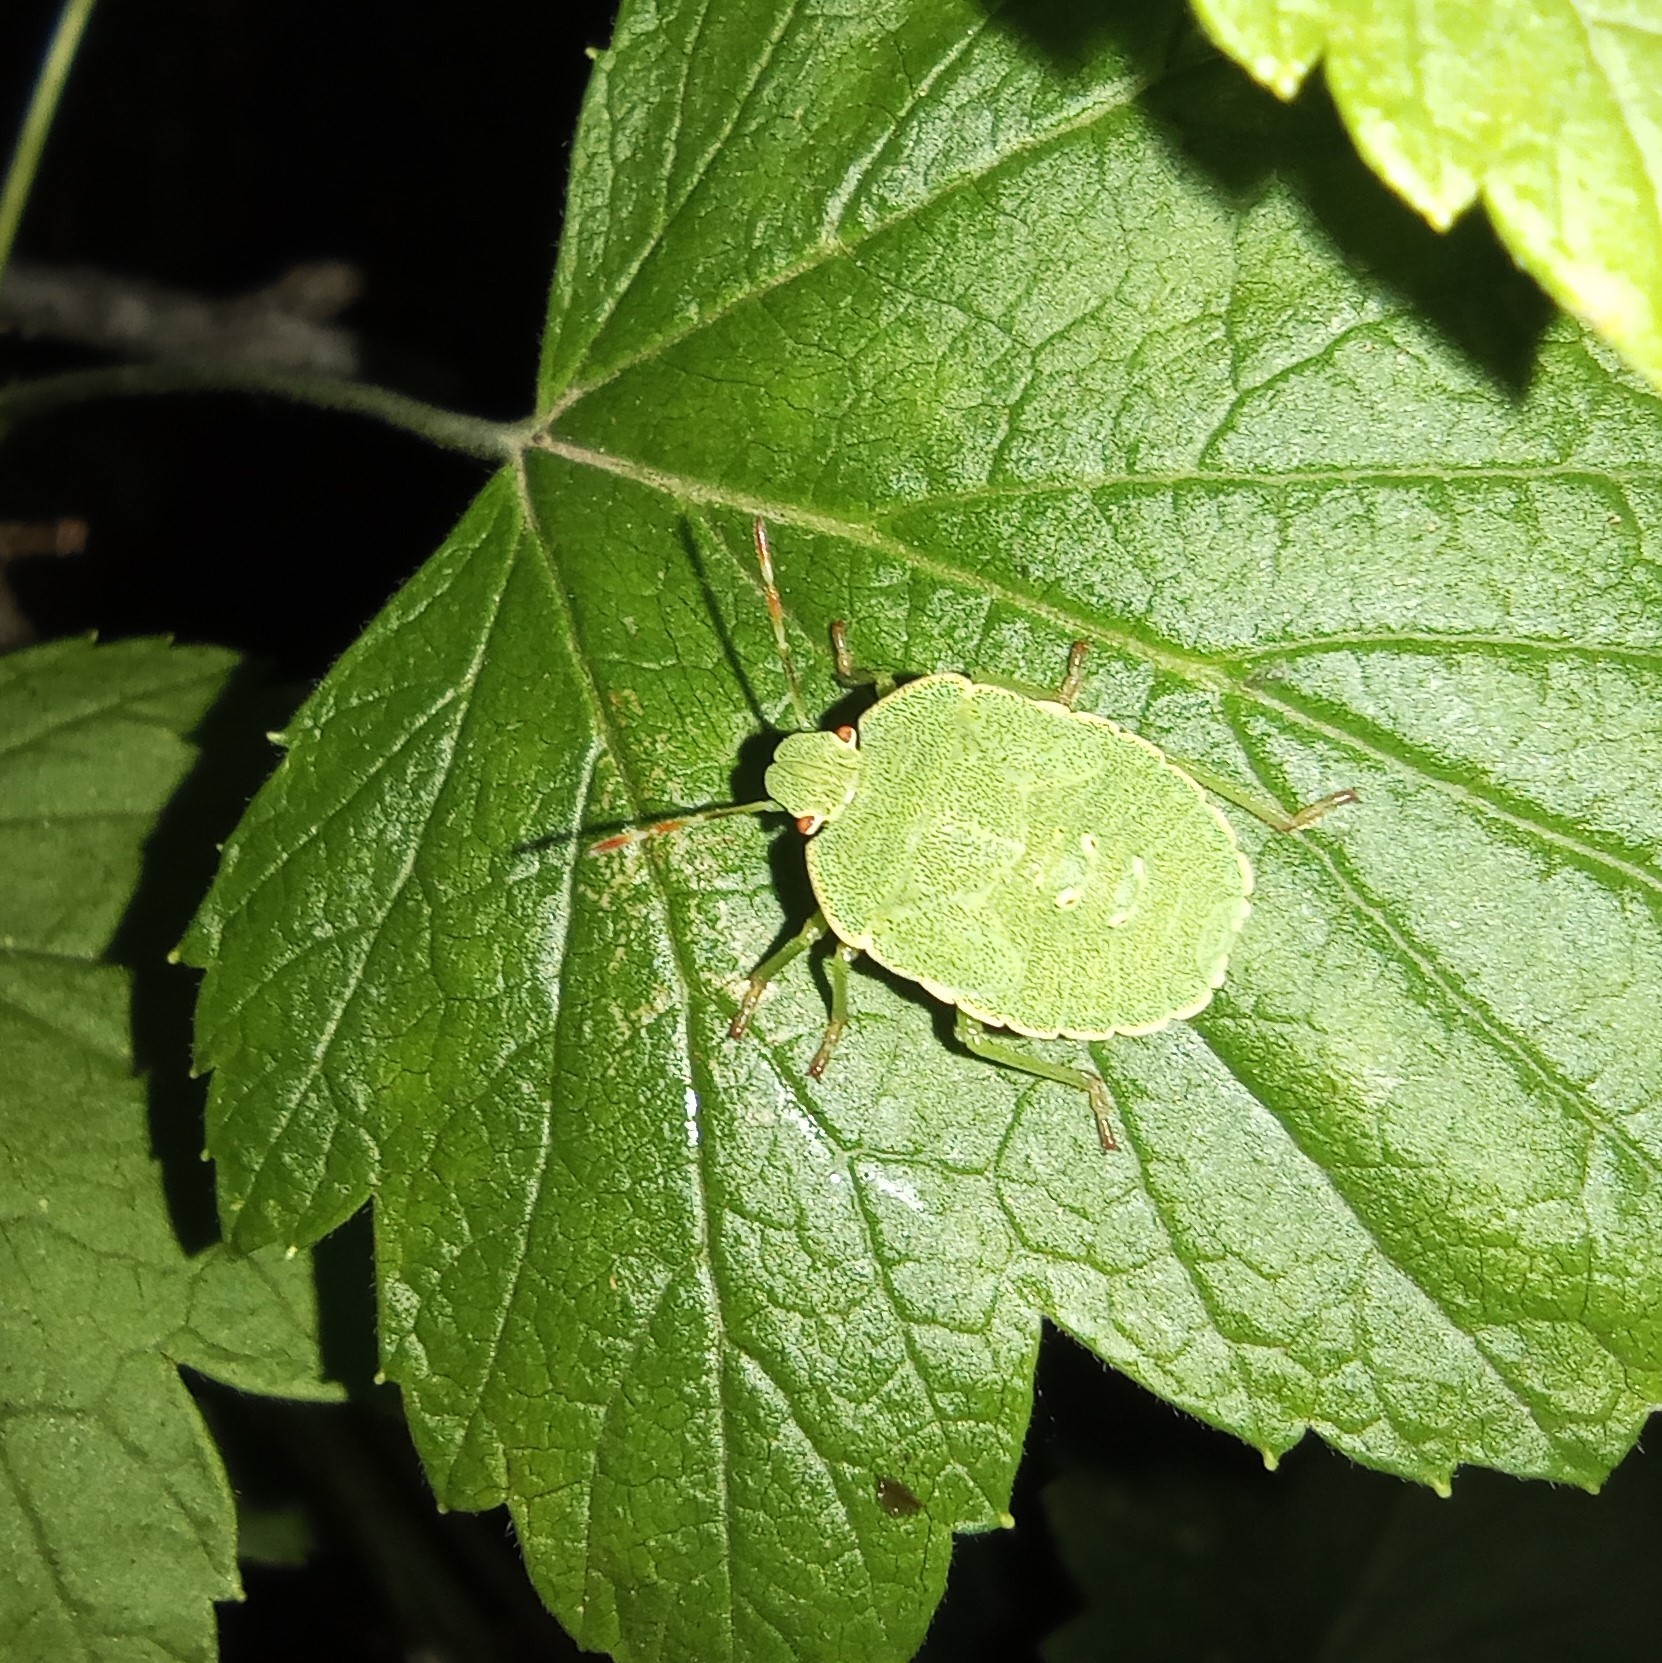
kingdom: Animalia
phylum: Arthropoda
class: Insecta
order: Hemiptera
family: Pentatomidae
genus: Palomena
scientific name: Palomena prasina
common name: Green shieldbug
